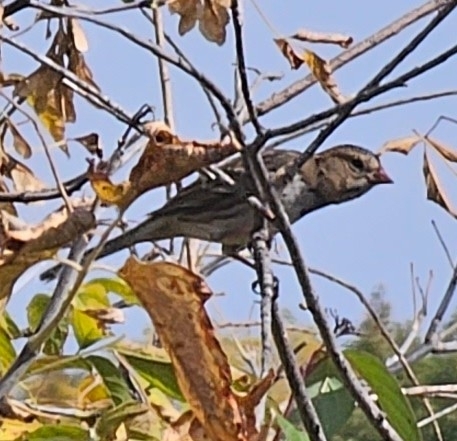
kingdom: Animalia
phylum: Chordata
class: Aves
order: Passeriformes
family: Passerellidae
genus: Zonotrichia
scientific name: Zonotrichia querula
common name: Harris's sparrow
